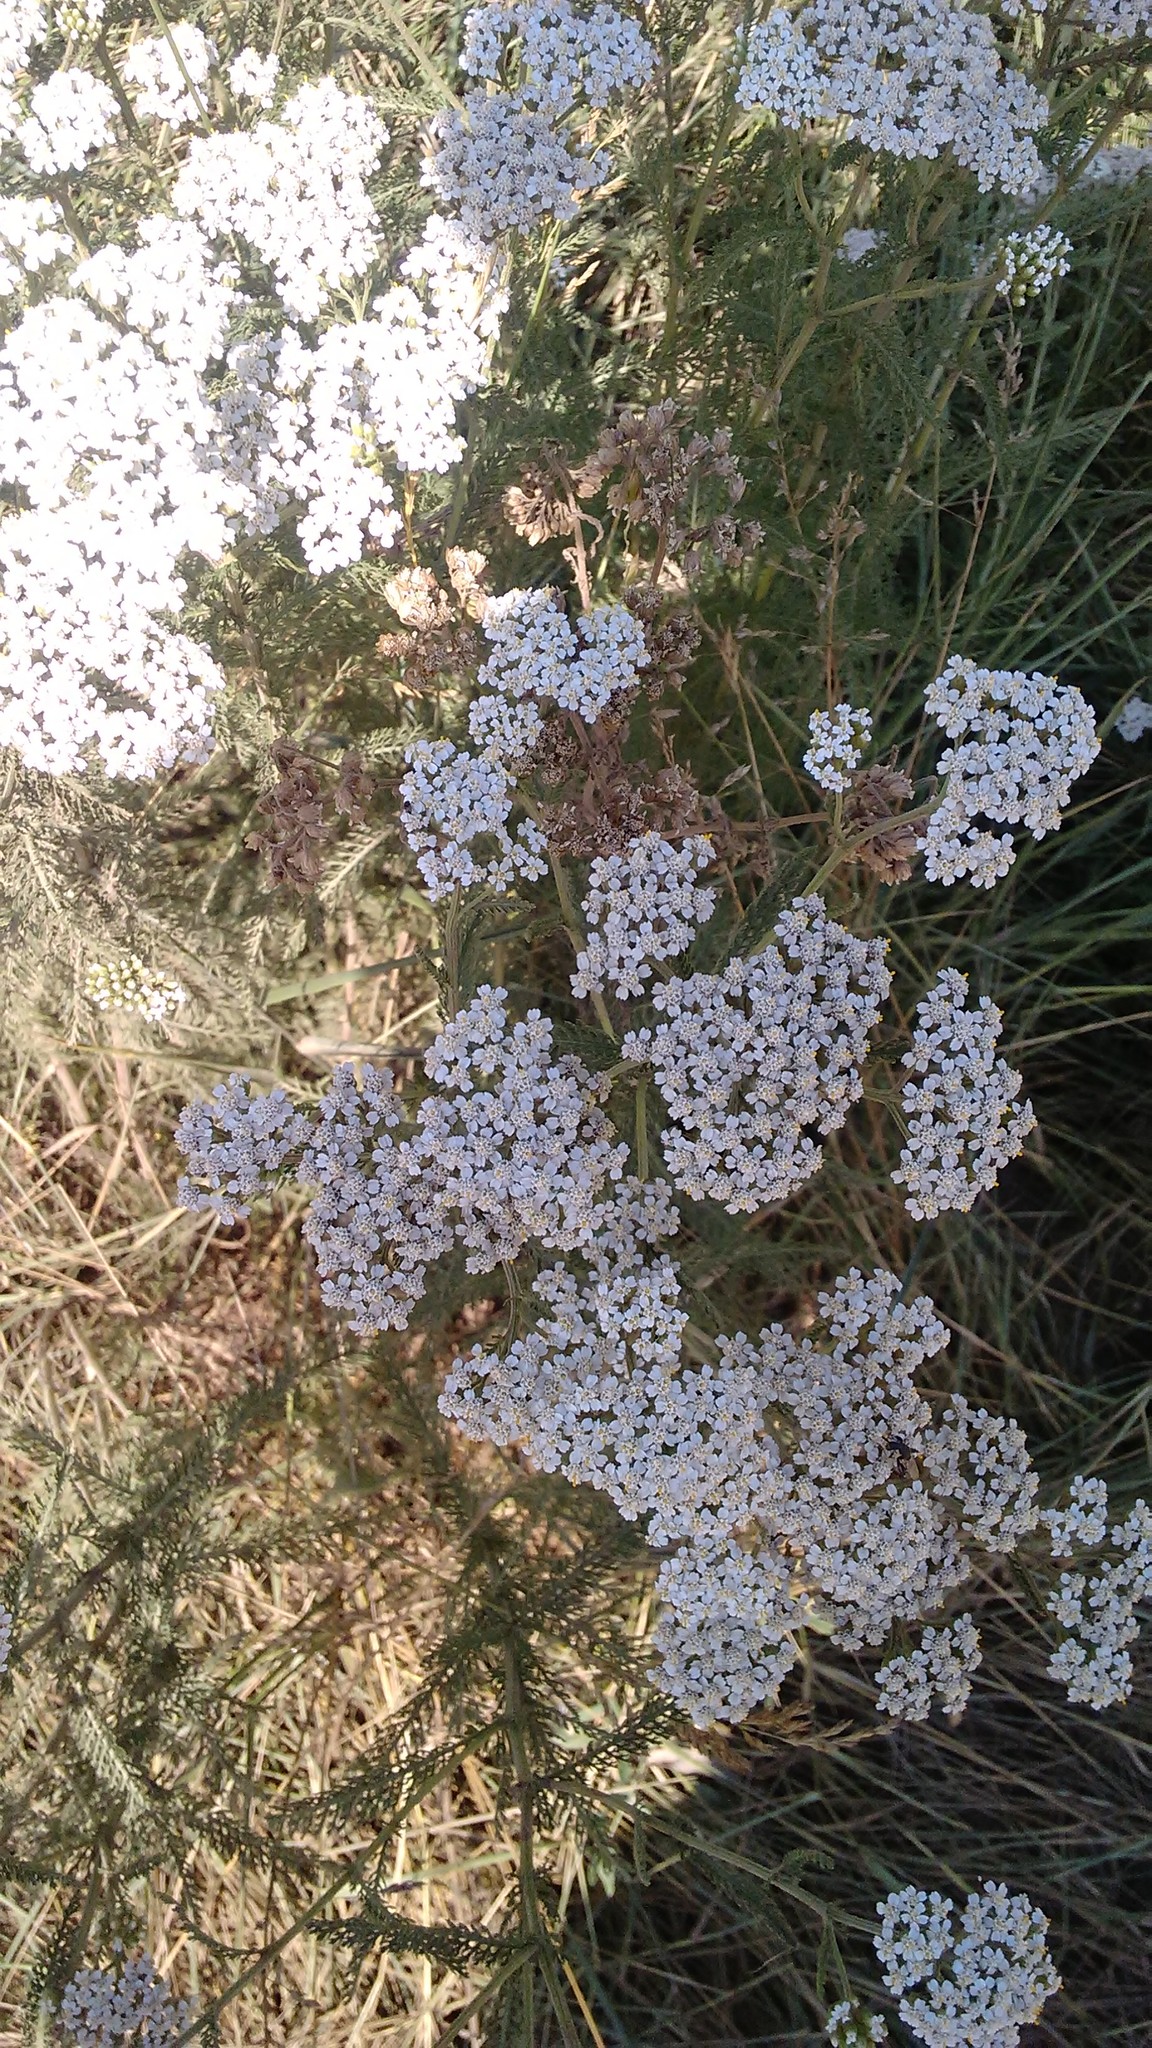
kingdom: Plantae
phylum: Tracheophyta
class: Magnoliopsida
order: Asterales
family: Asteraceae
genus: Achillea
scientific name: Achillea millefolium
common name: Yarrow
